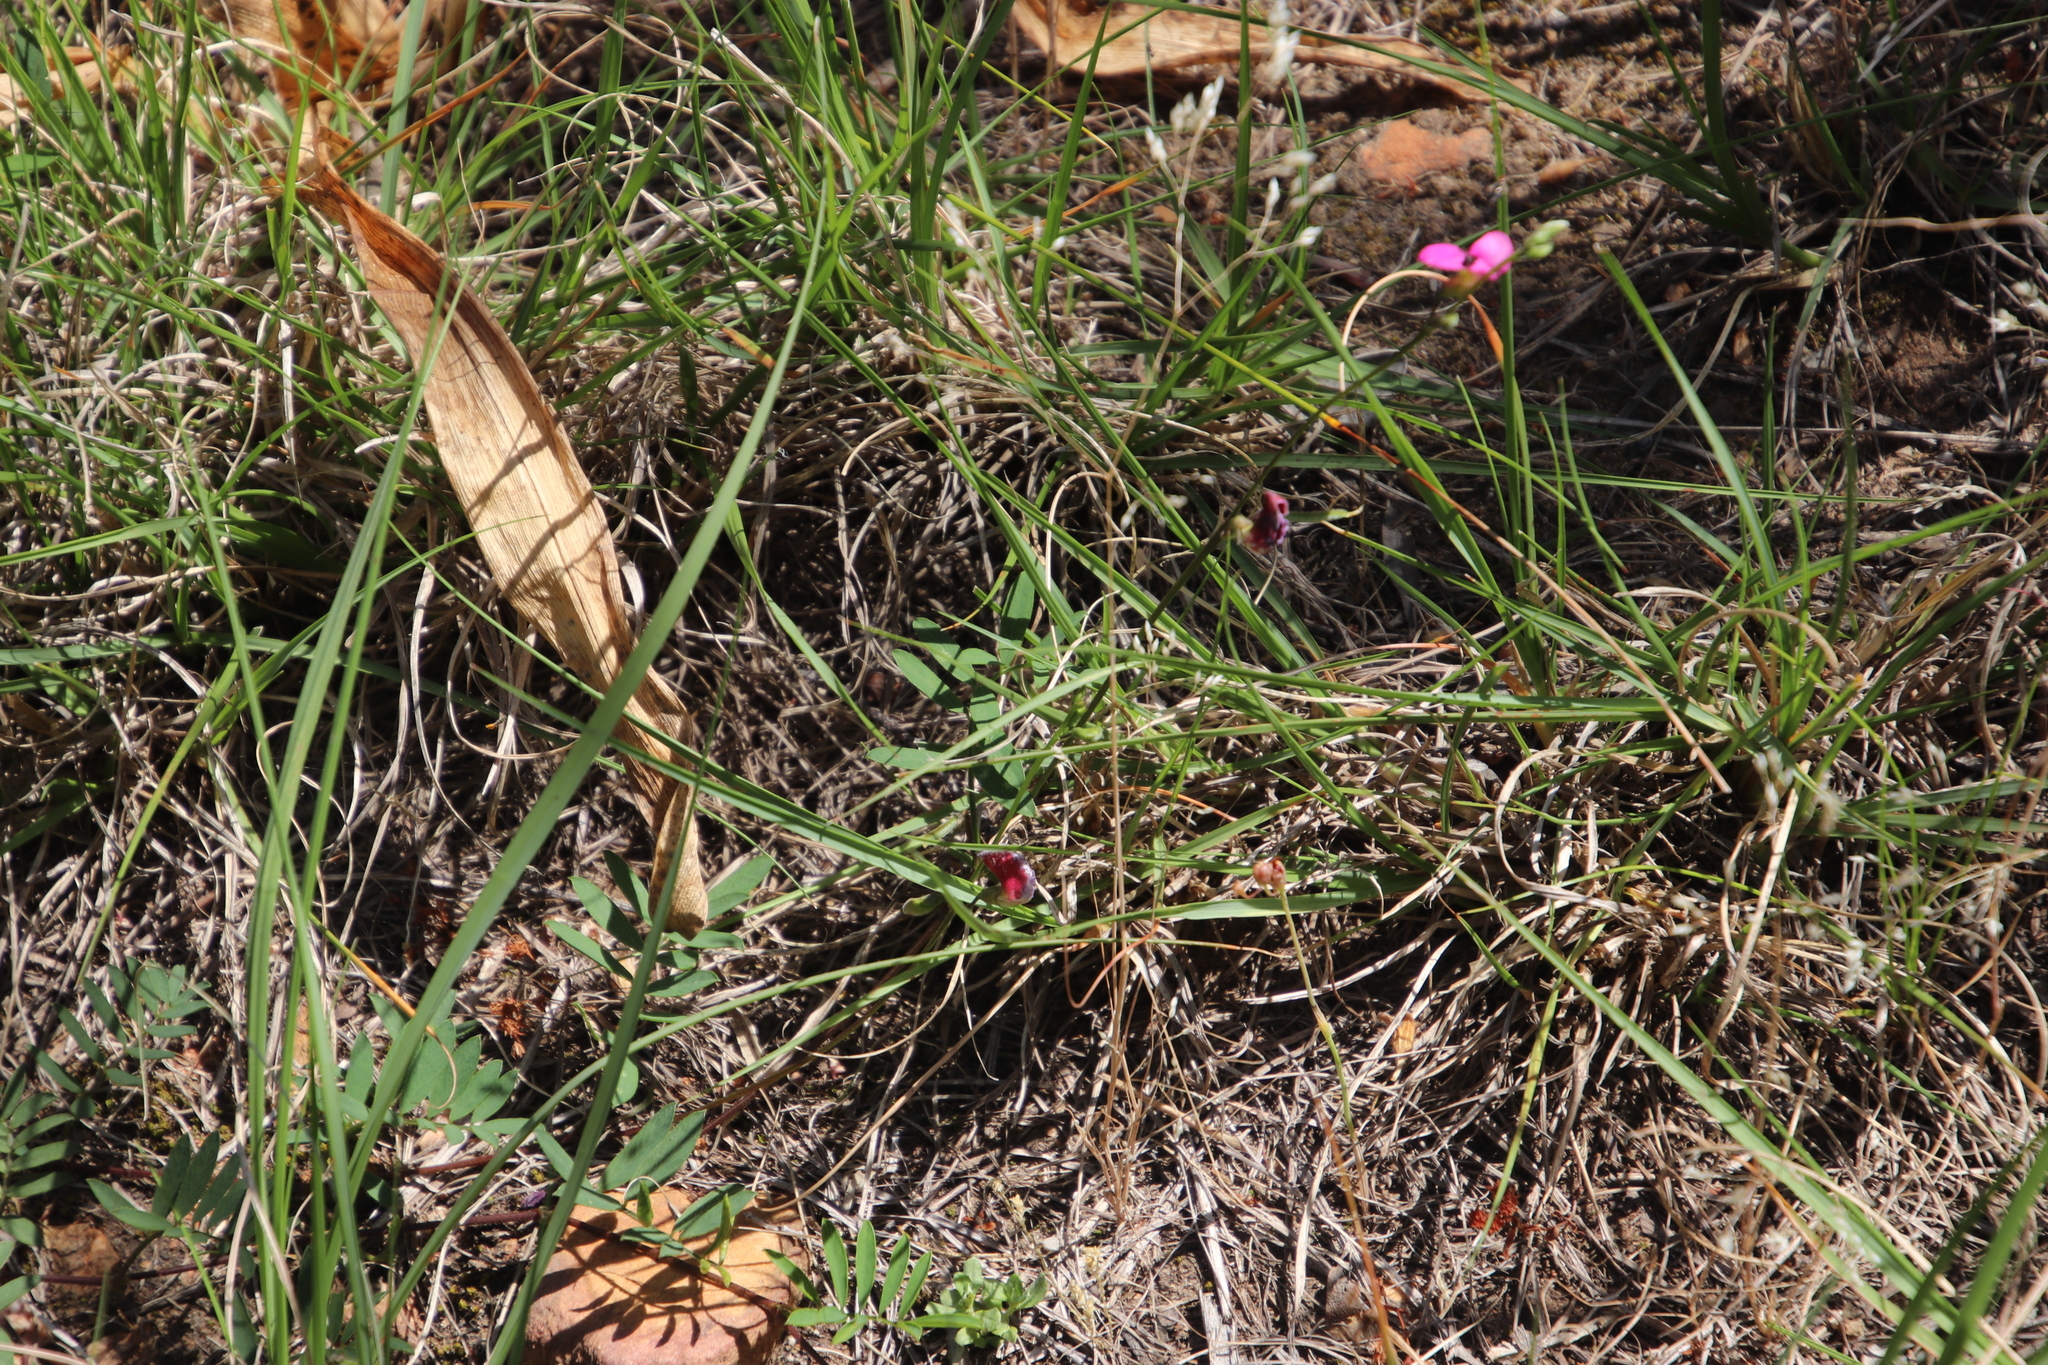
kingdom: Plantae
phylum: Tracheophyta
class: Magnoliopsida
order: Fabales
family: Fabaceae
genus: Tephrosia
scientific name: Tephrosia capensis
